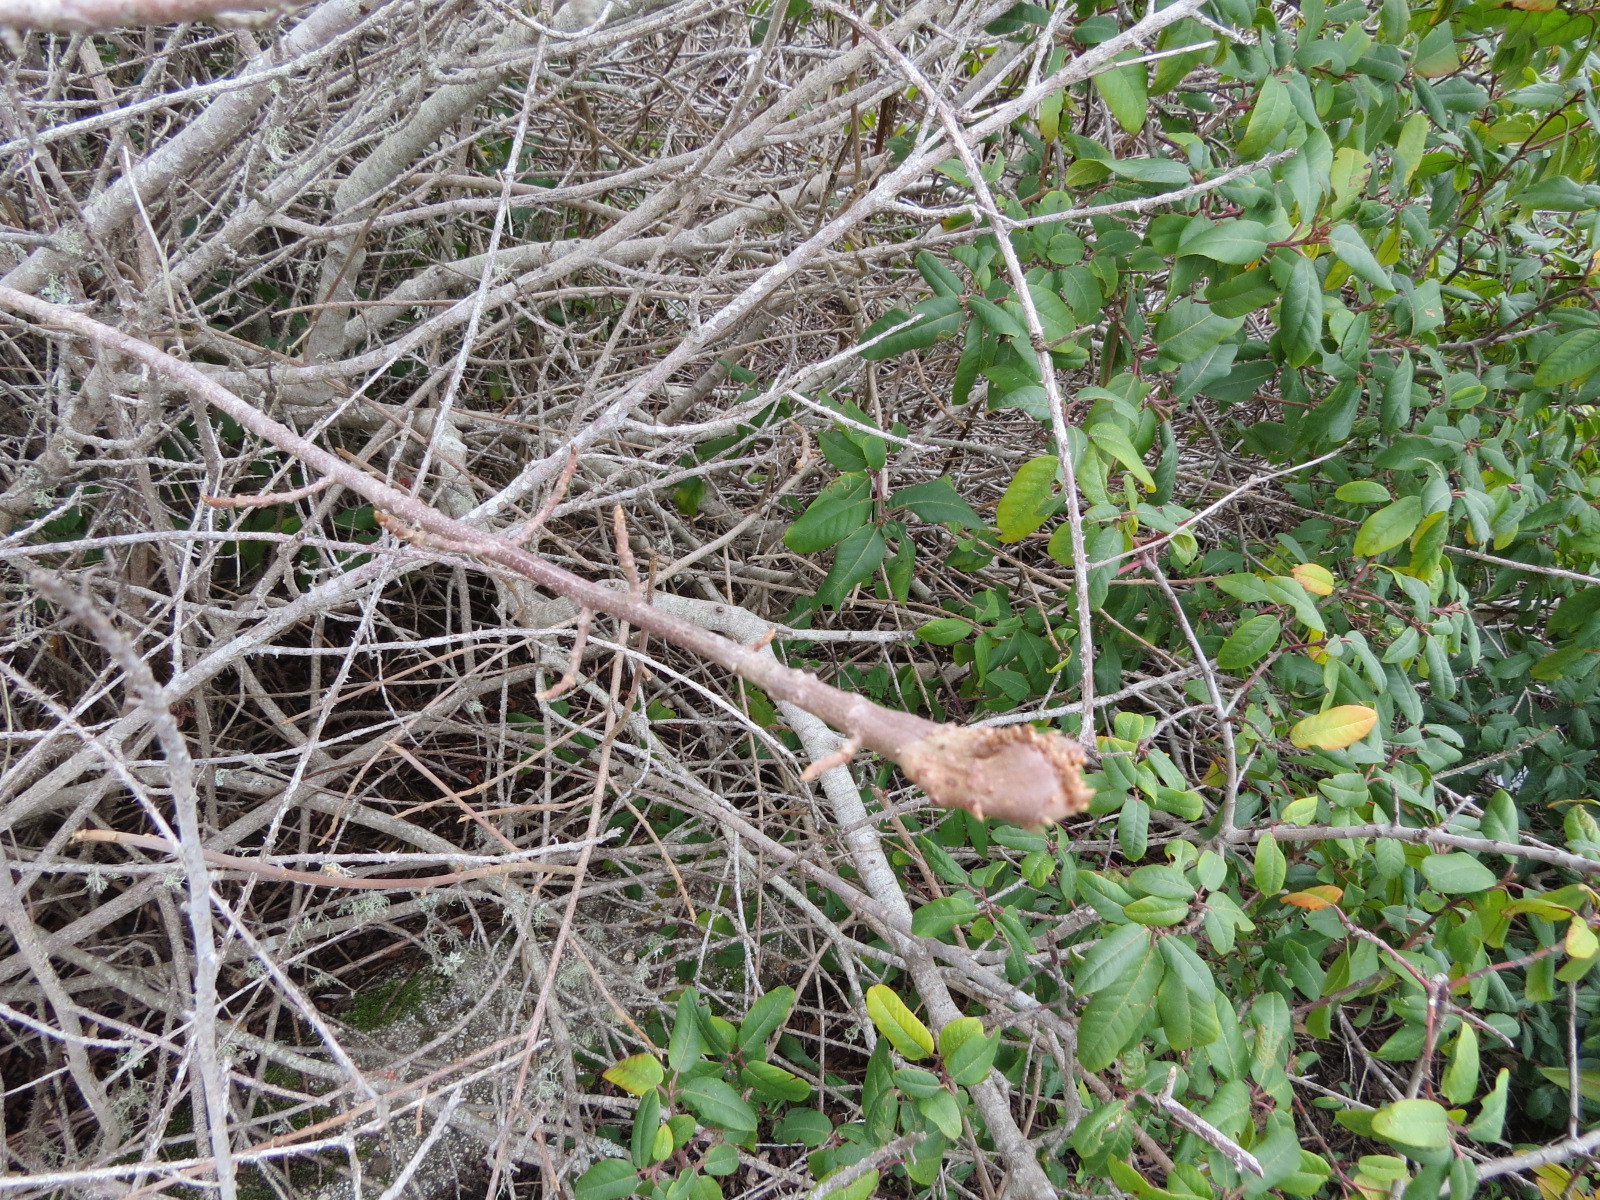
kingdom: Plantae
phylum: Tracheophyta
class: Magnoliopsida
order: Sapindales
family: Anacardiaceae
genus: Toxicodendron
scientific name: Toxicodendron diversilobum
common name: Pacific poison-oak
